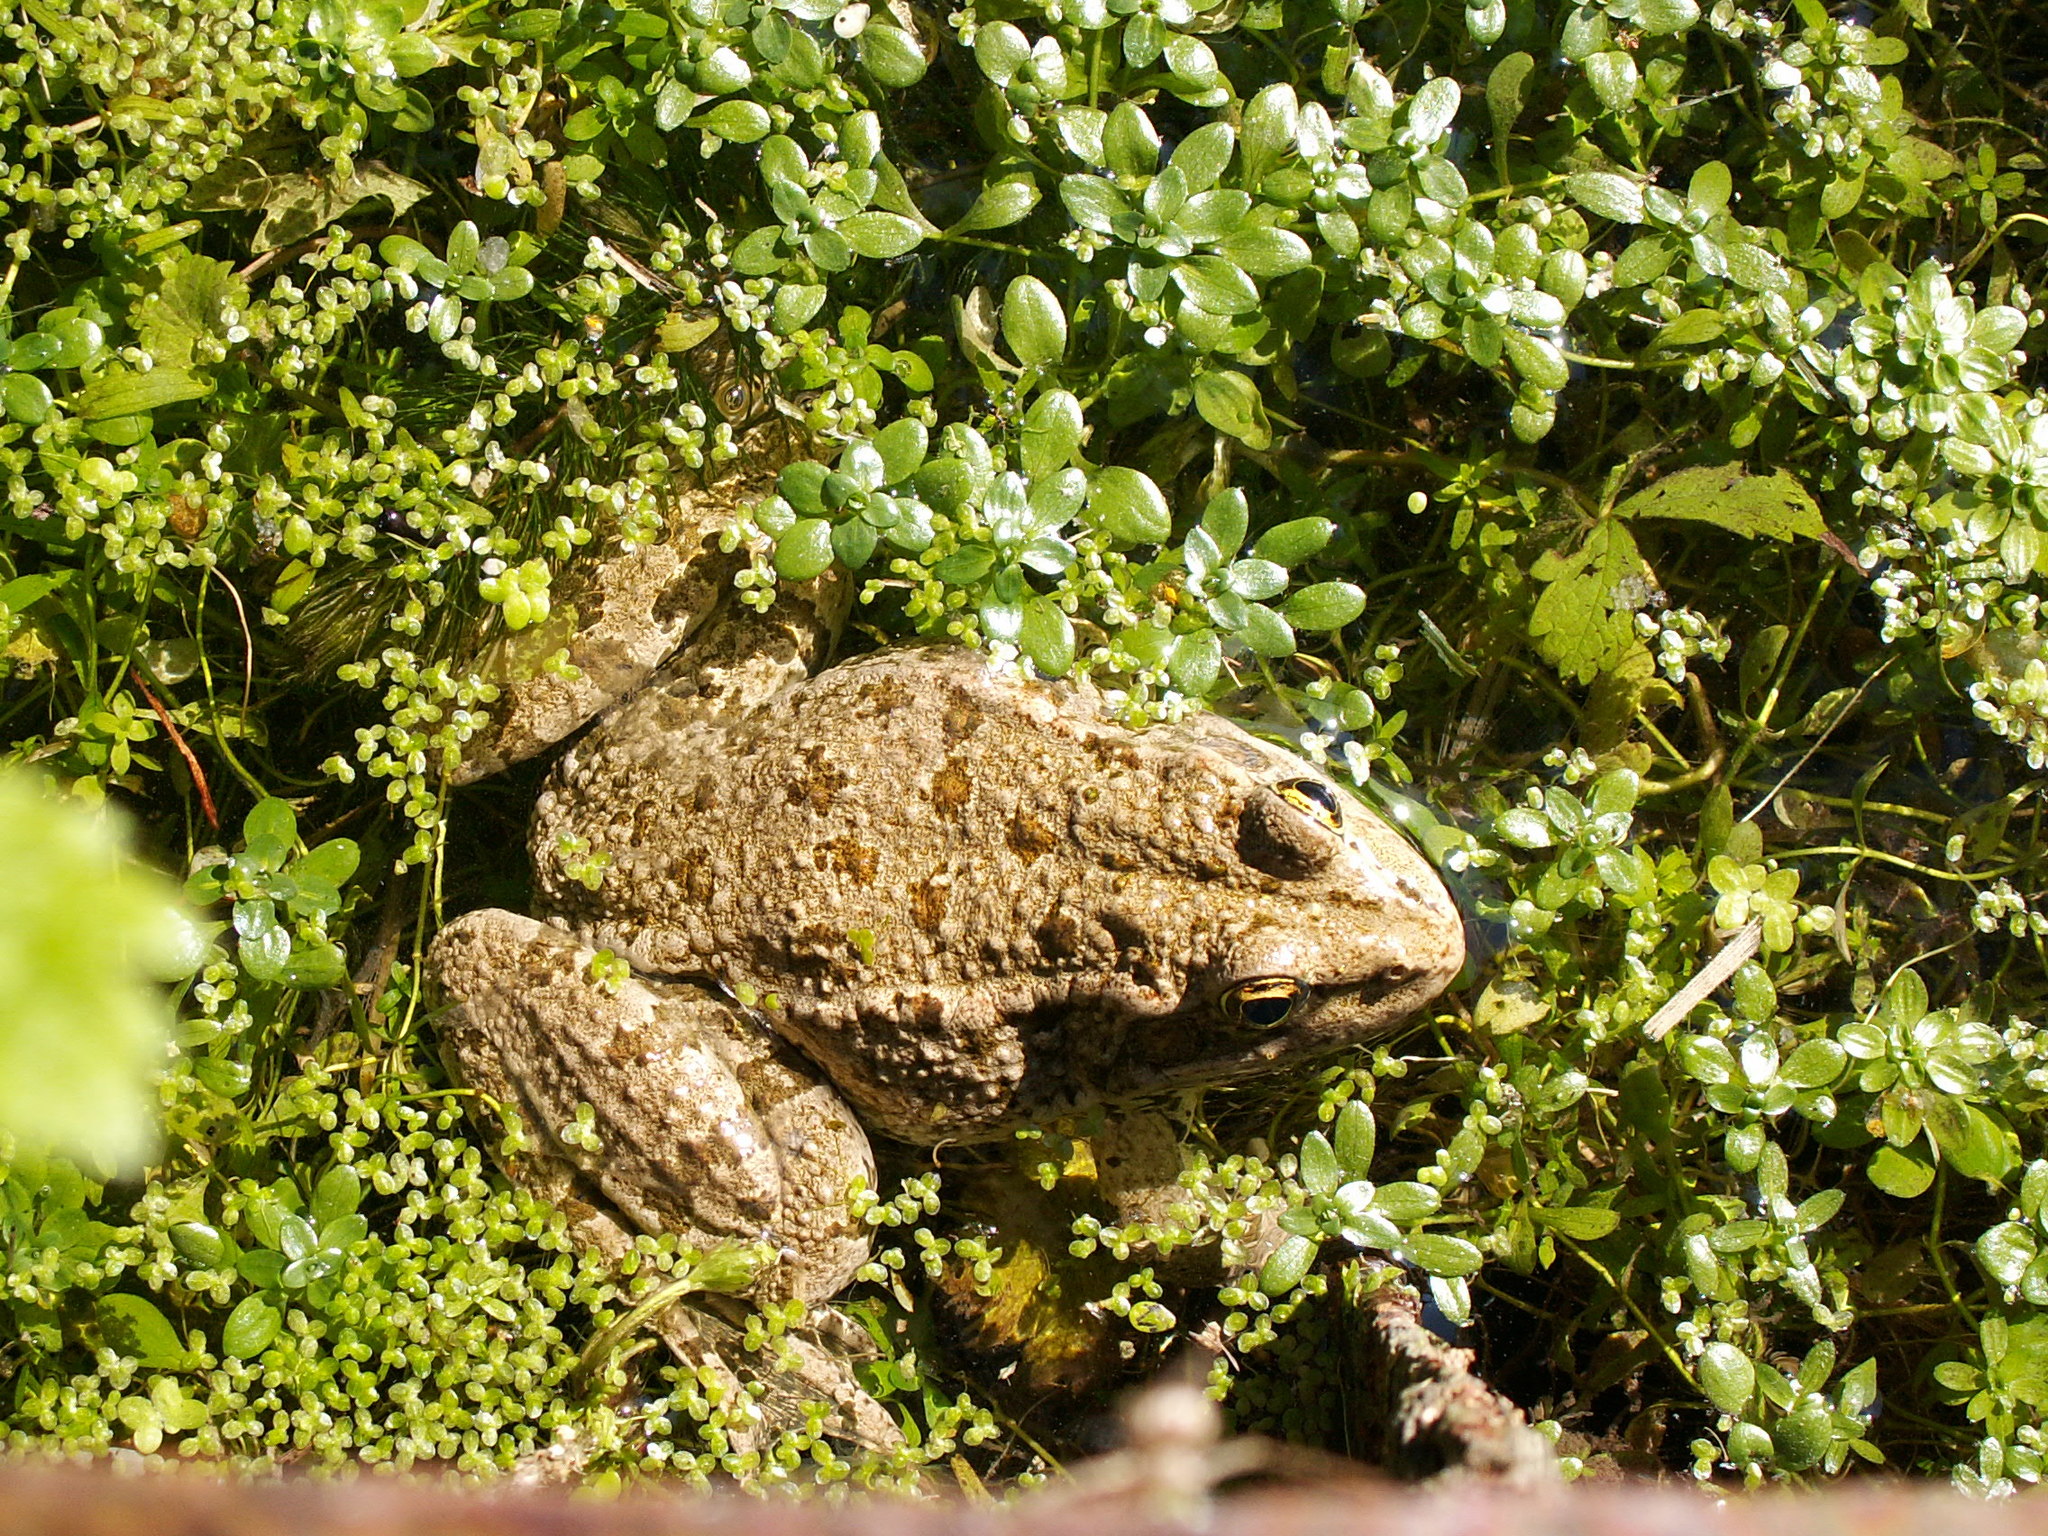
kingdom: Animalia
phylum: Chordata
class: Amphibia
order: Anura
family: Ranidae
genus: Pelophylax
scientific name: Pelophylax
